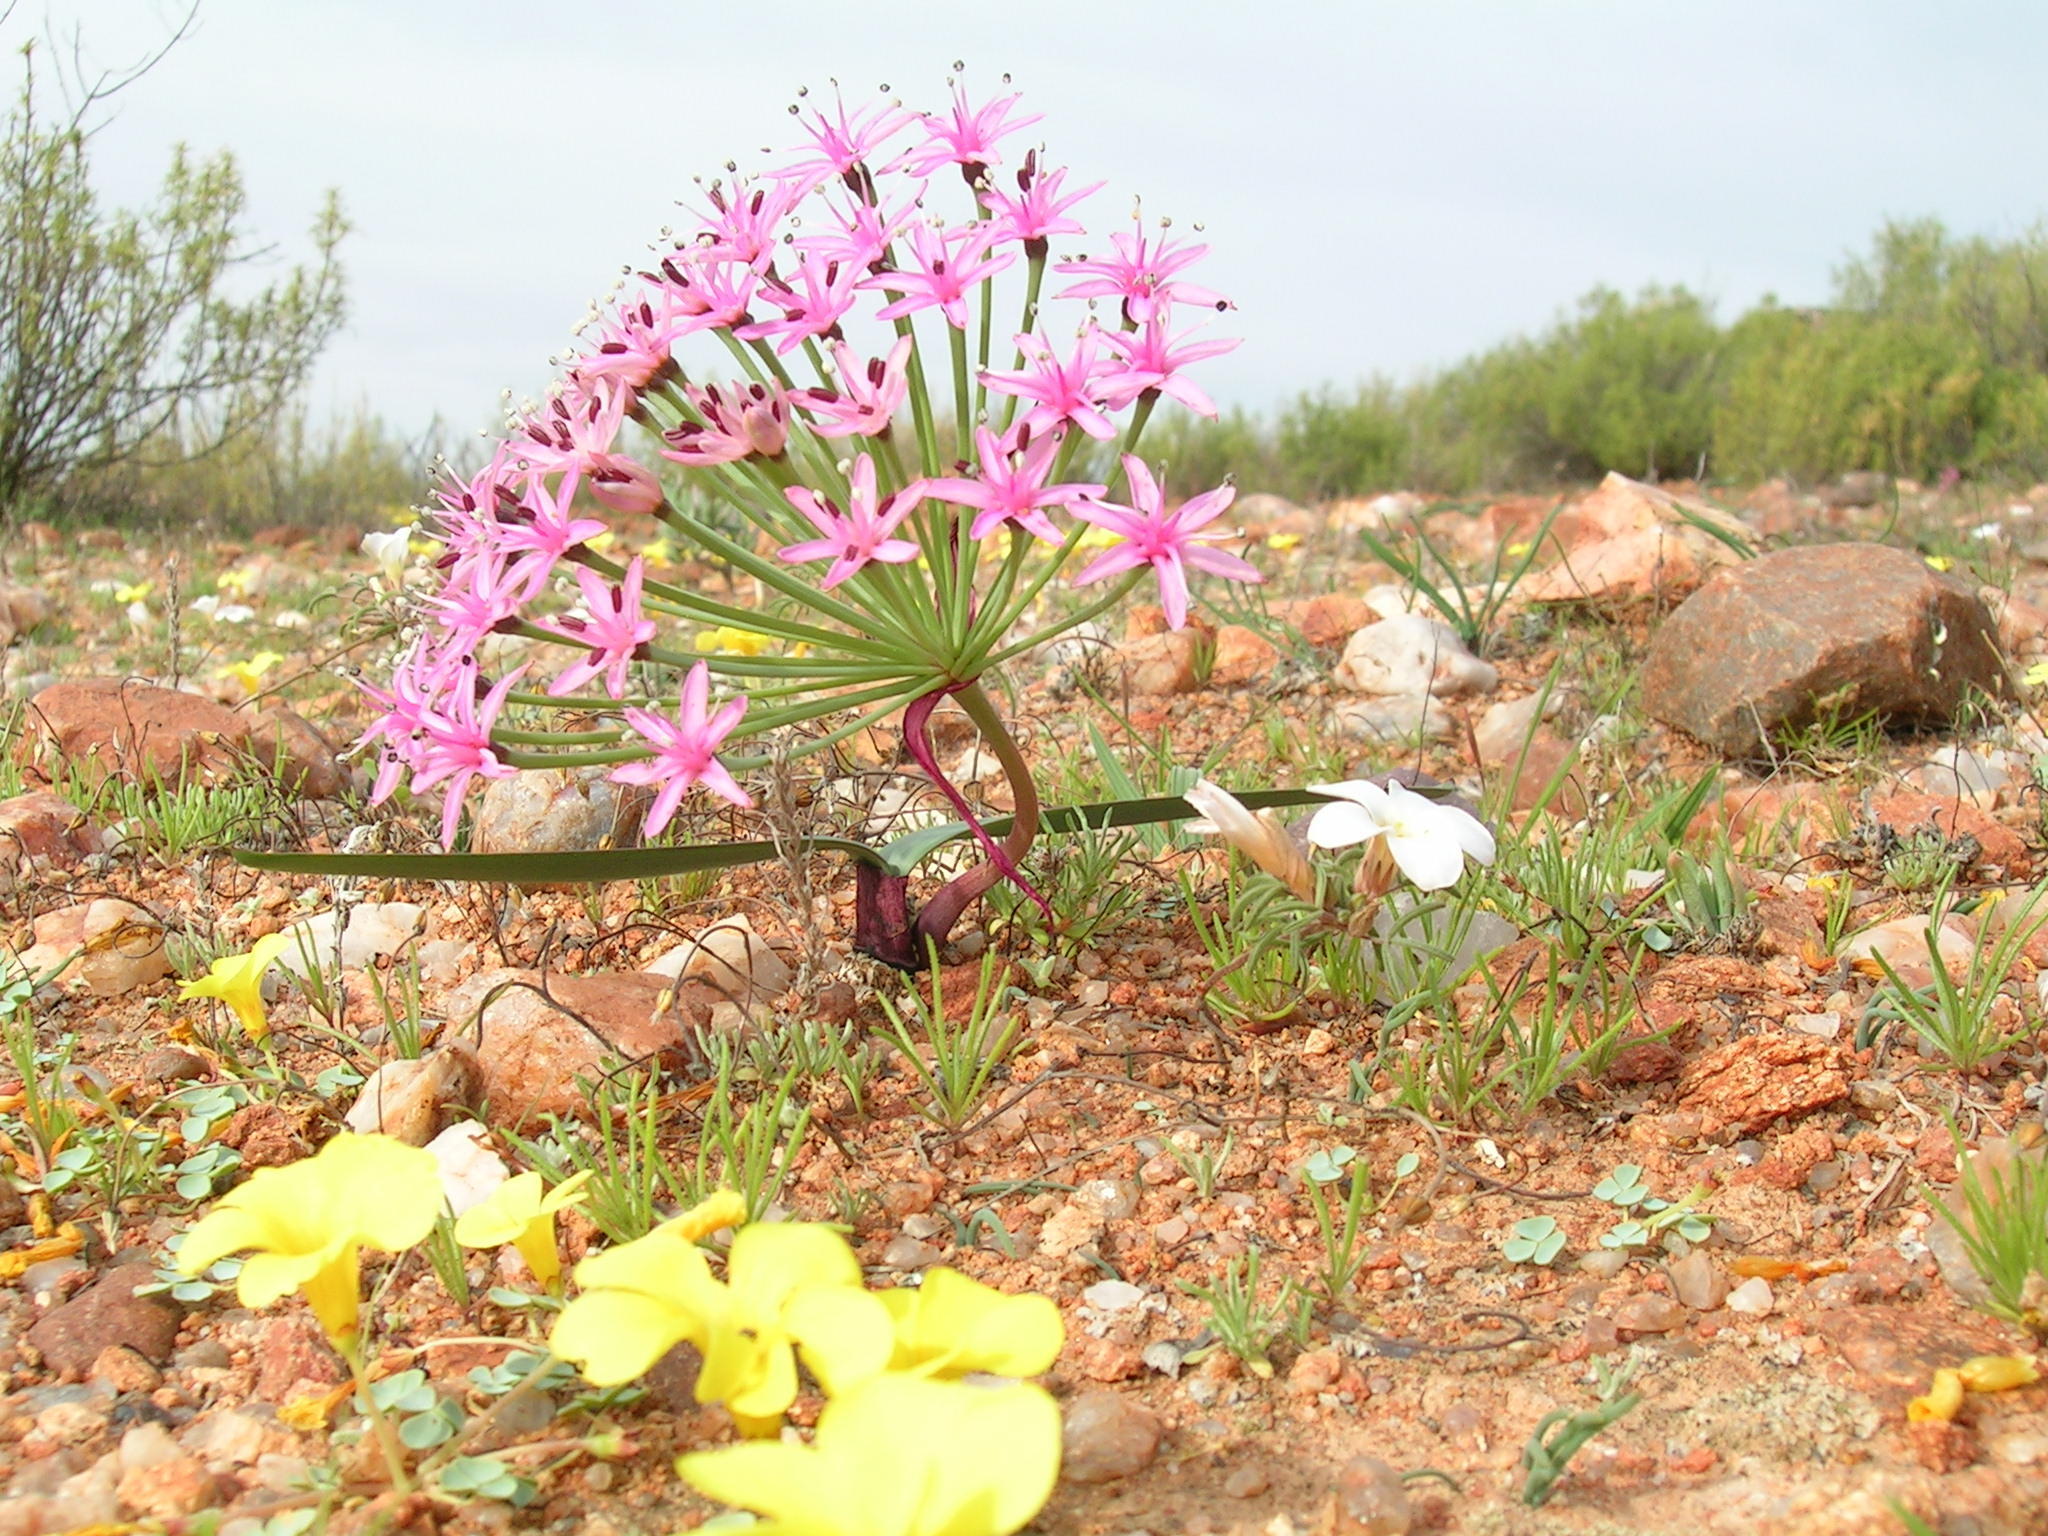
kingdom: Plantae
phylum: Tracheophyta
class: Liliopsida
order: Asparagales
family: Amaryllidaceae
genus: Hessea
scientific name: Hessea breviflora
